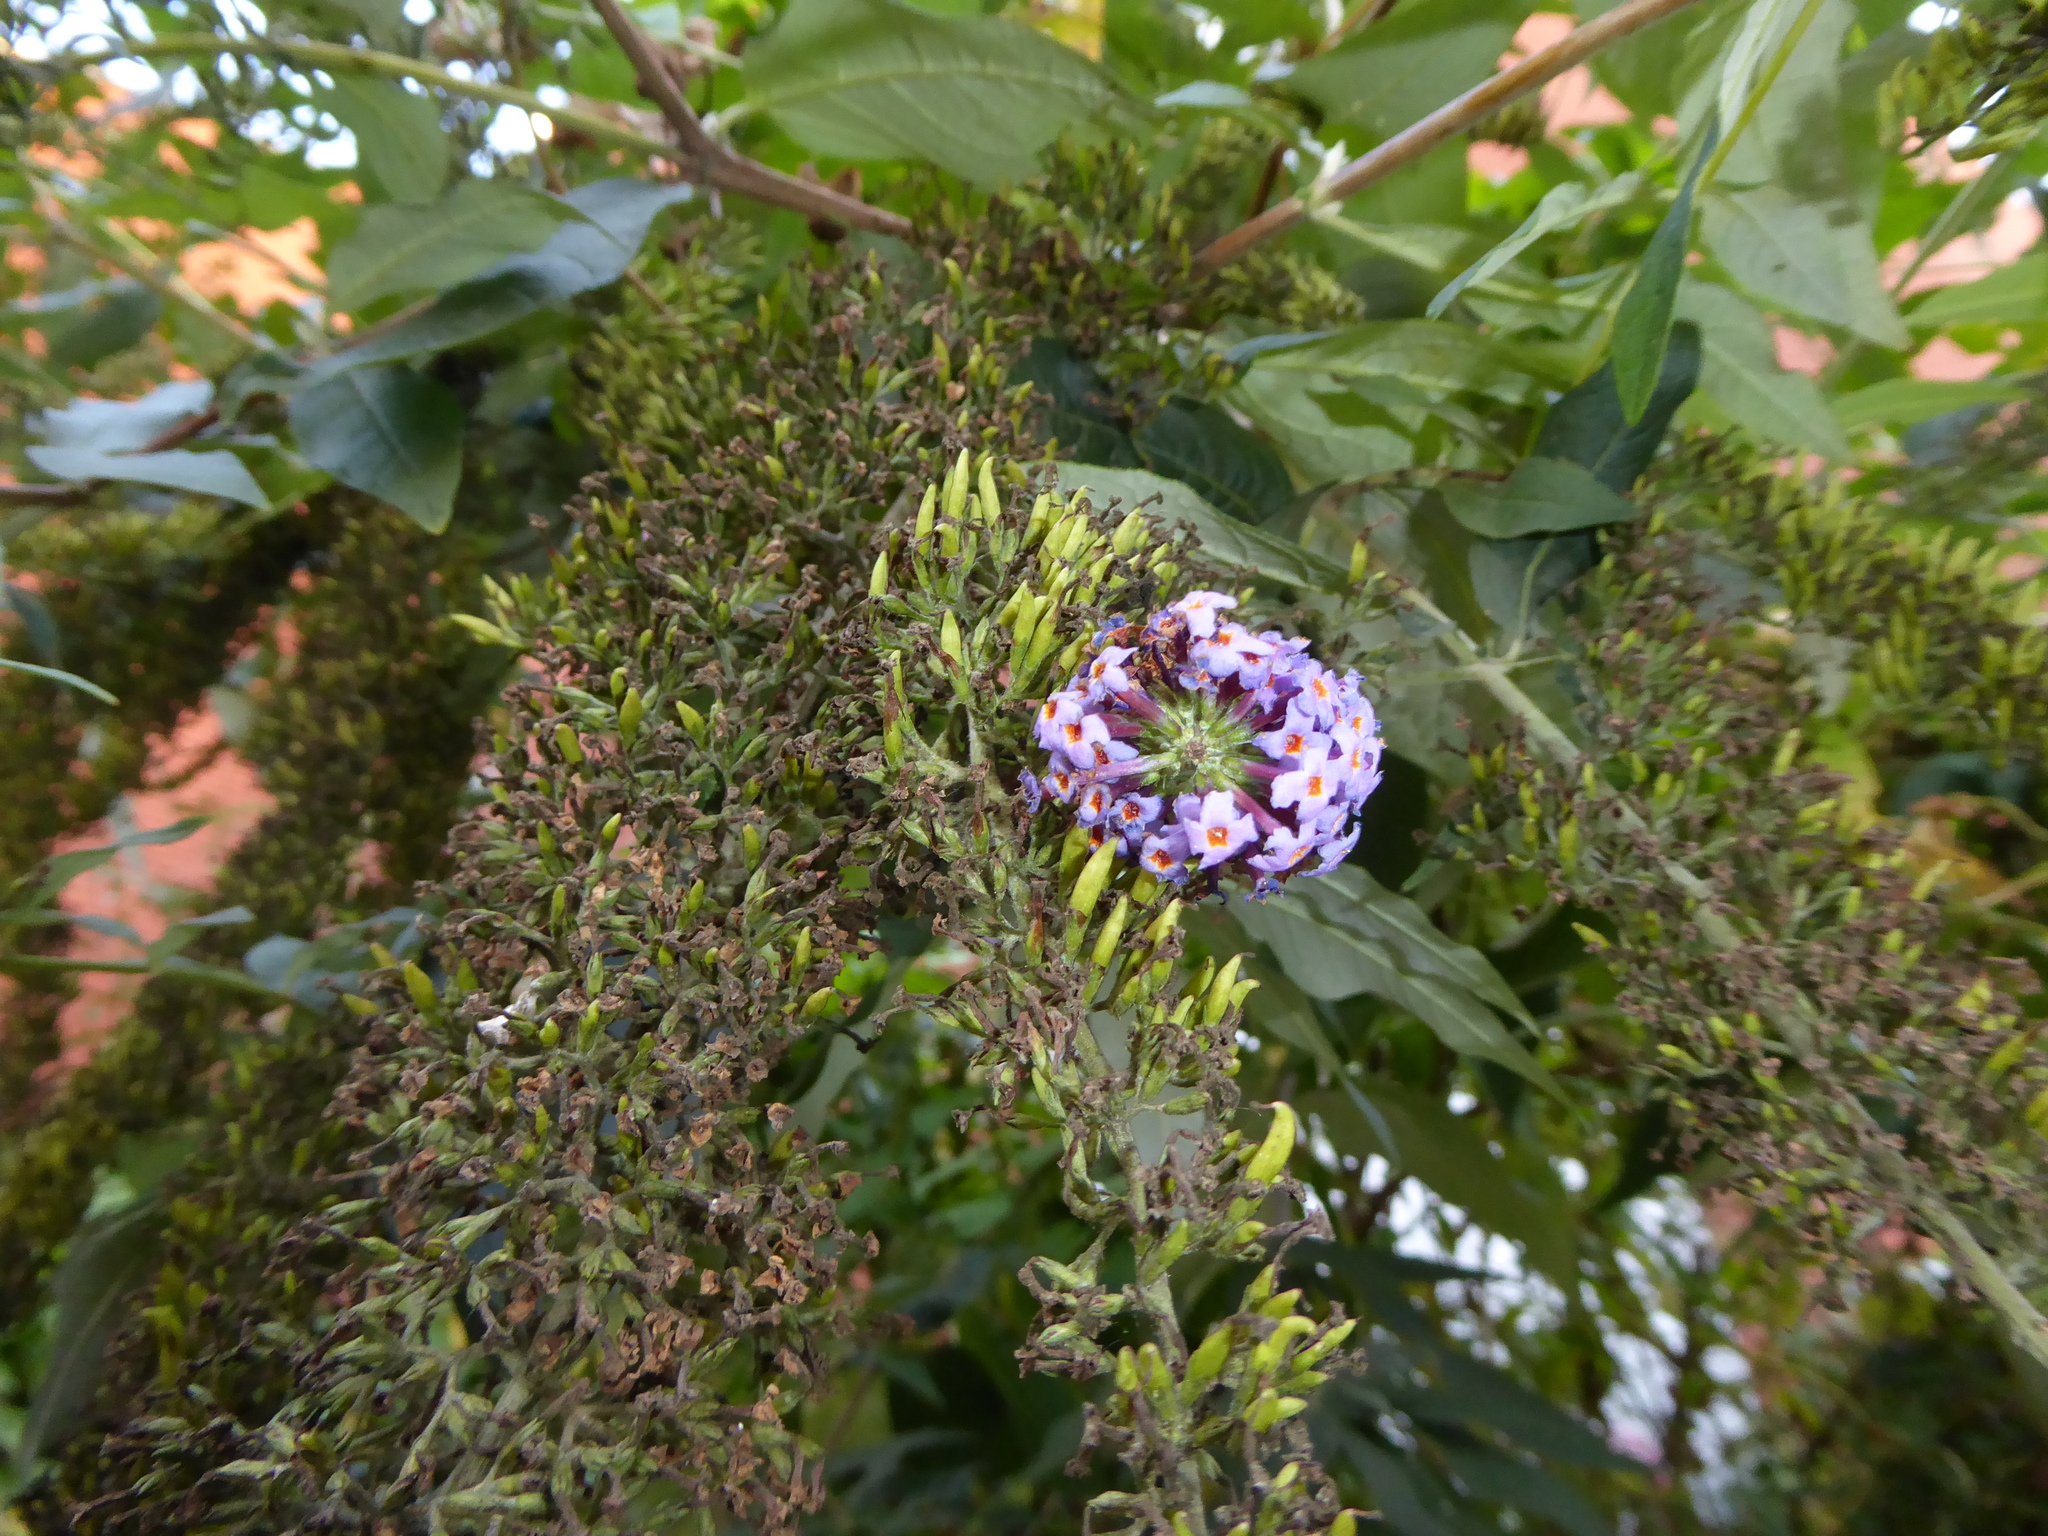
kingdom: Plantae
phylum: Tracheophyta
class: Magnoliopsida
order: Lamiales
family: Scrophulariaceae
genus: Buddleja
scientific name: Buddleja davidii
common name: Butterfly-bush
